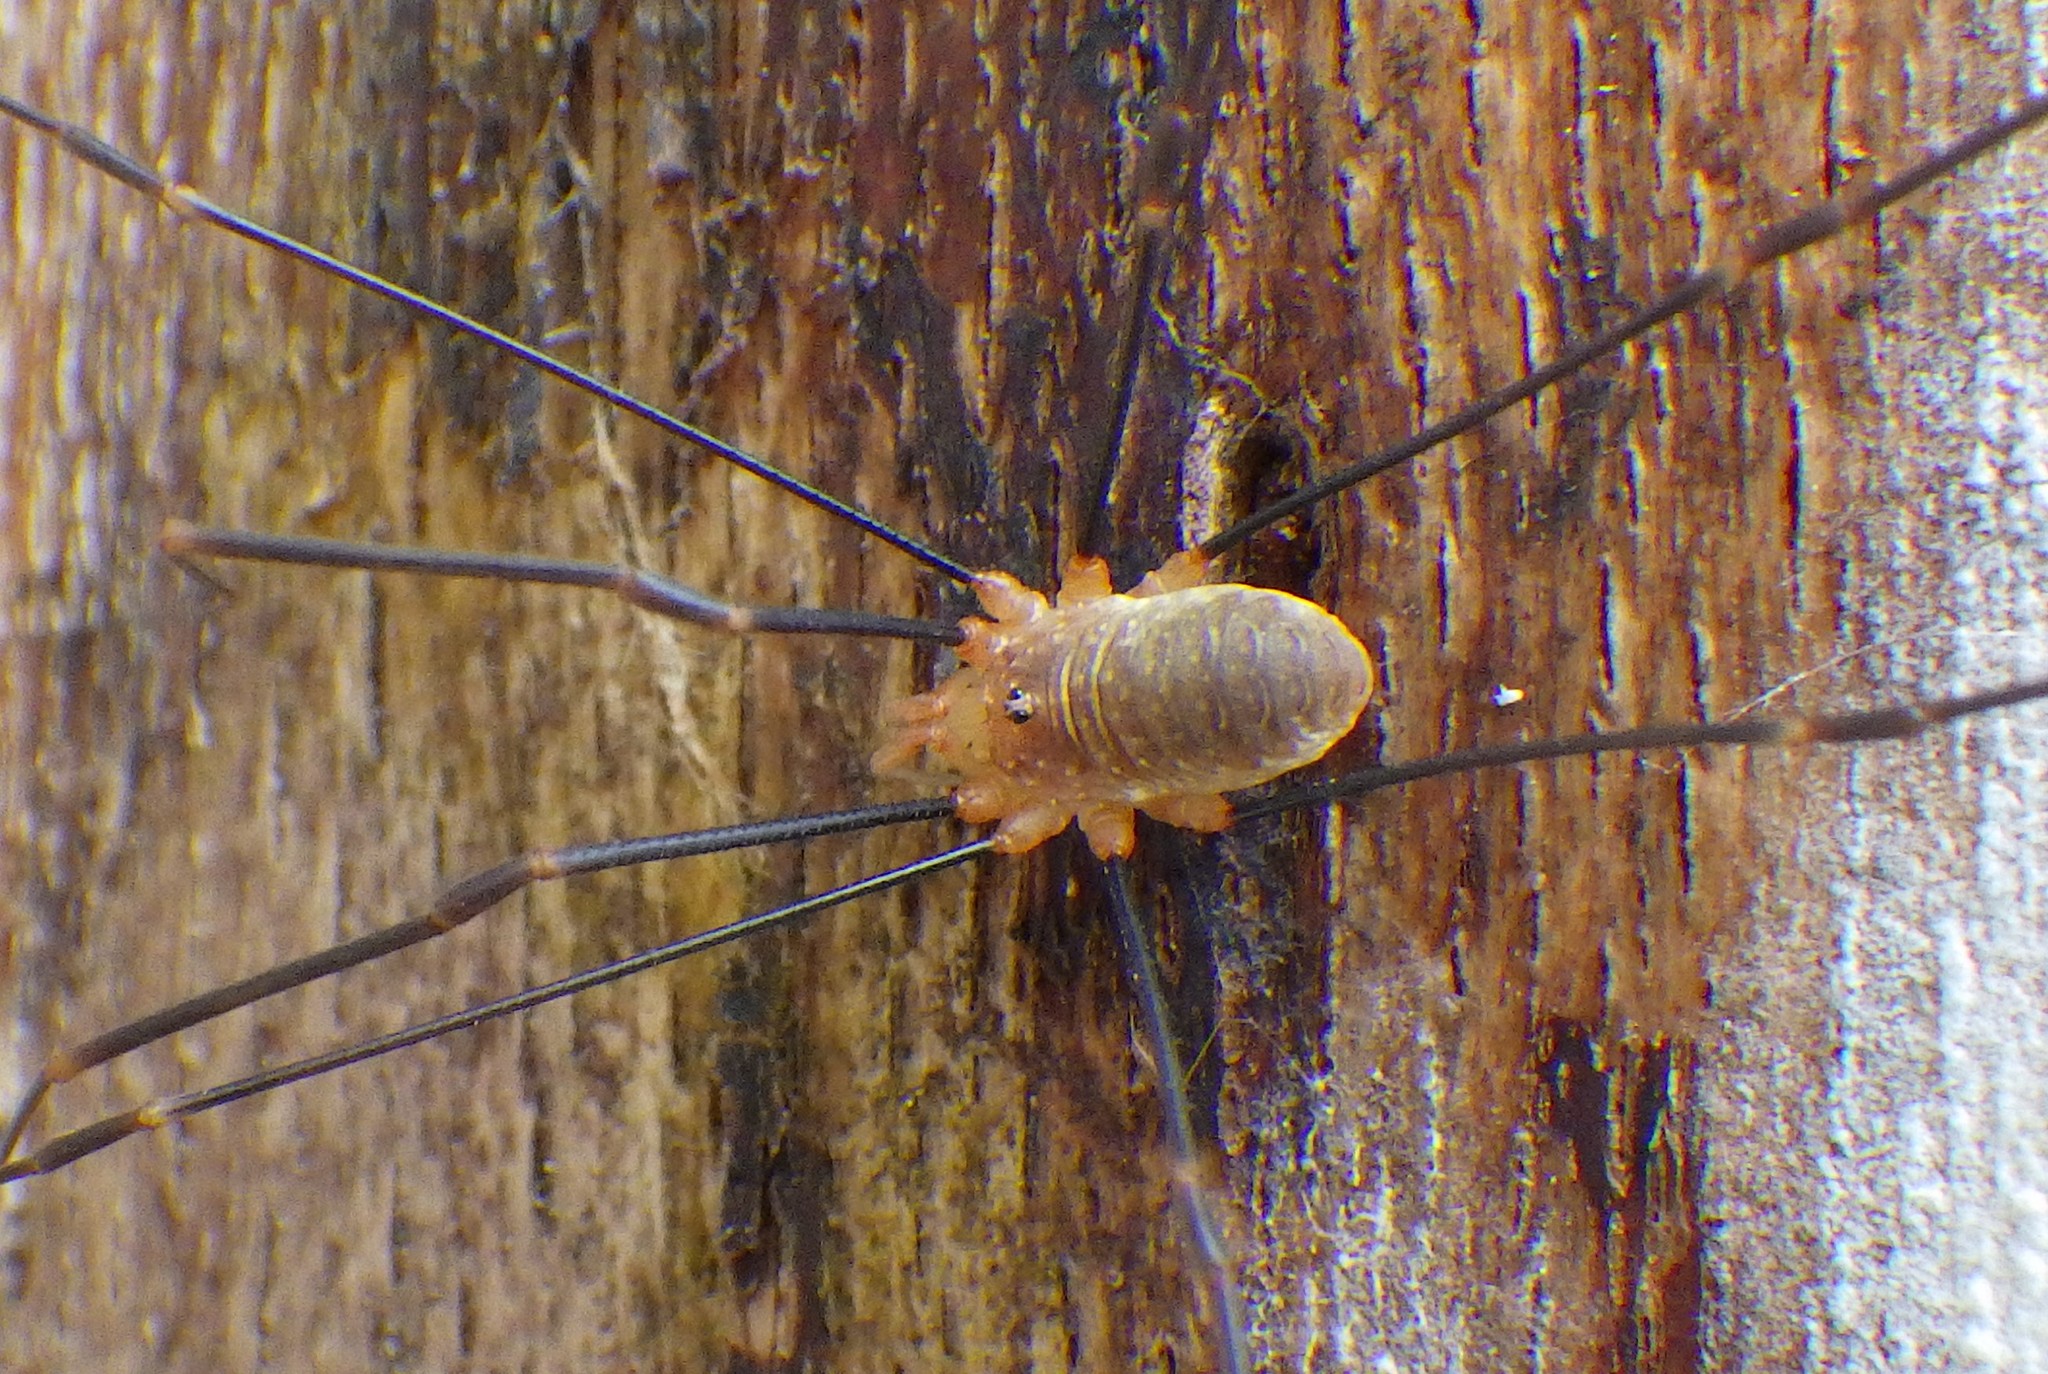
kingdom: Animalia
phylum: Arthropoda
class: Arachnida
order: Opiliones
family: Phalangiidae
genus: Opilio
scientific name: Opilio canestrinii
